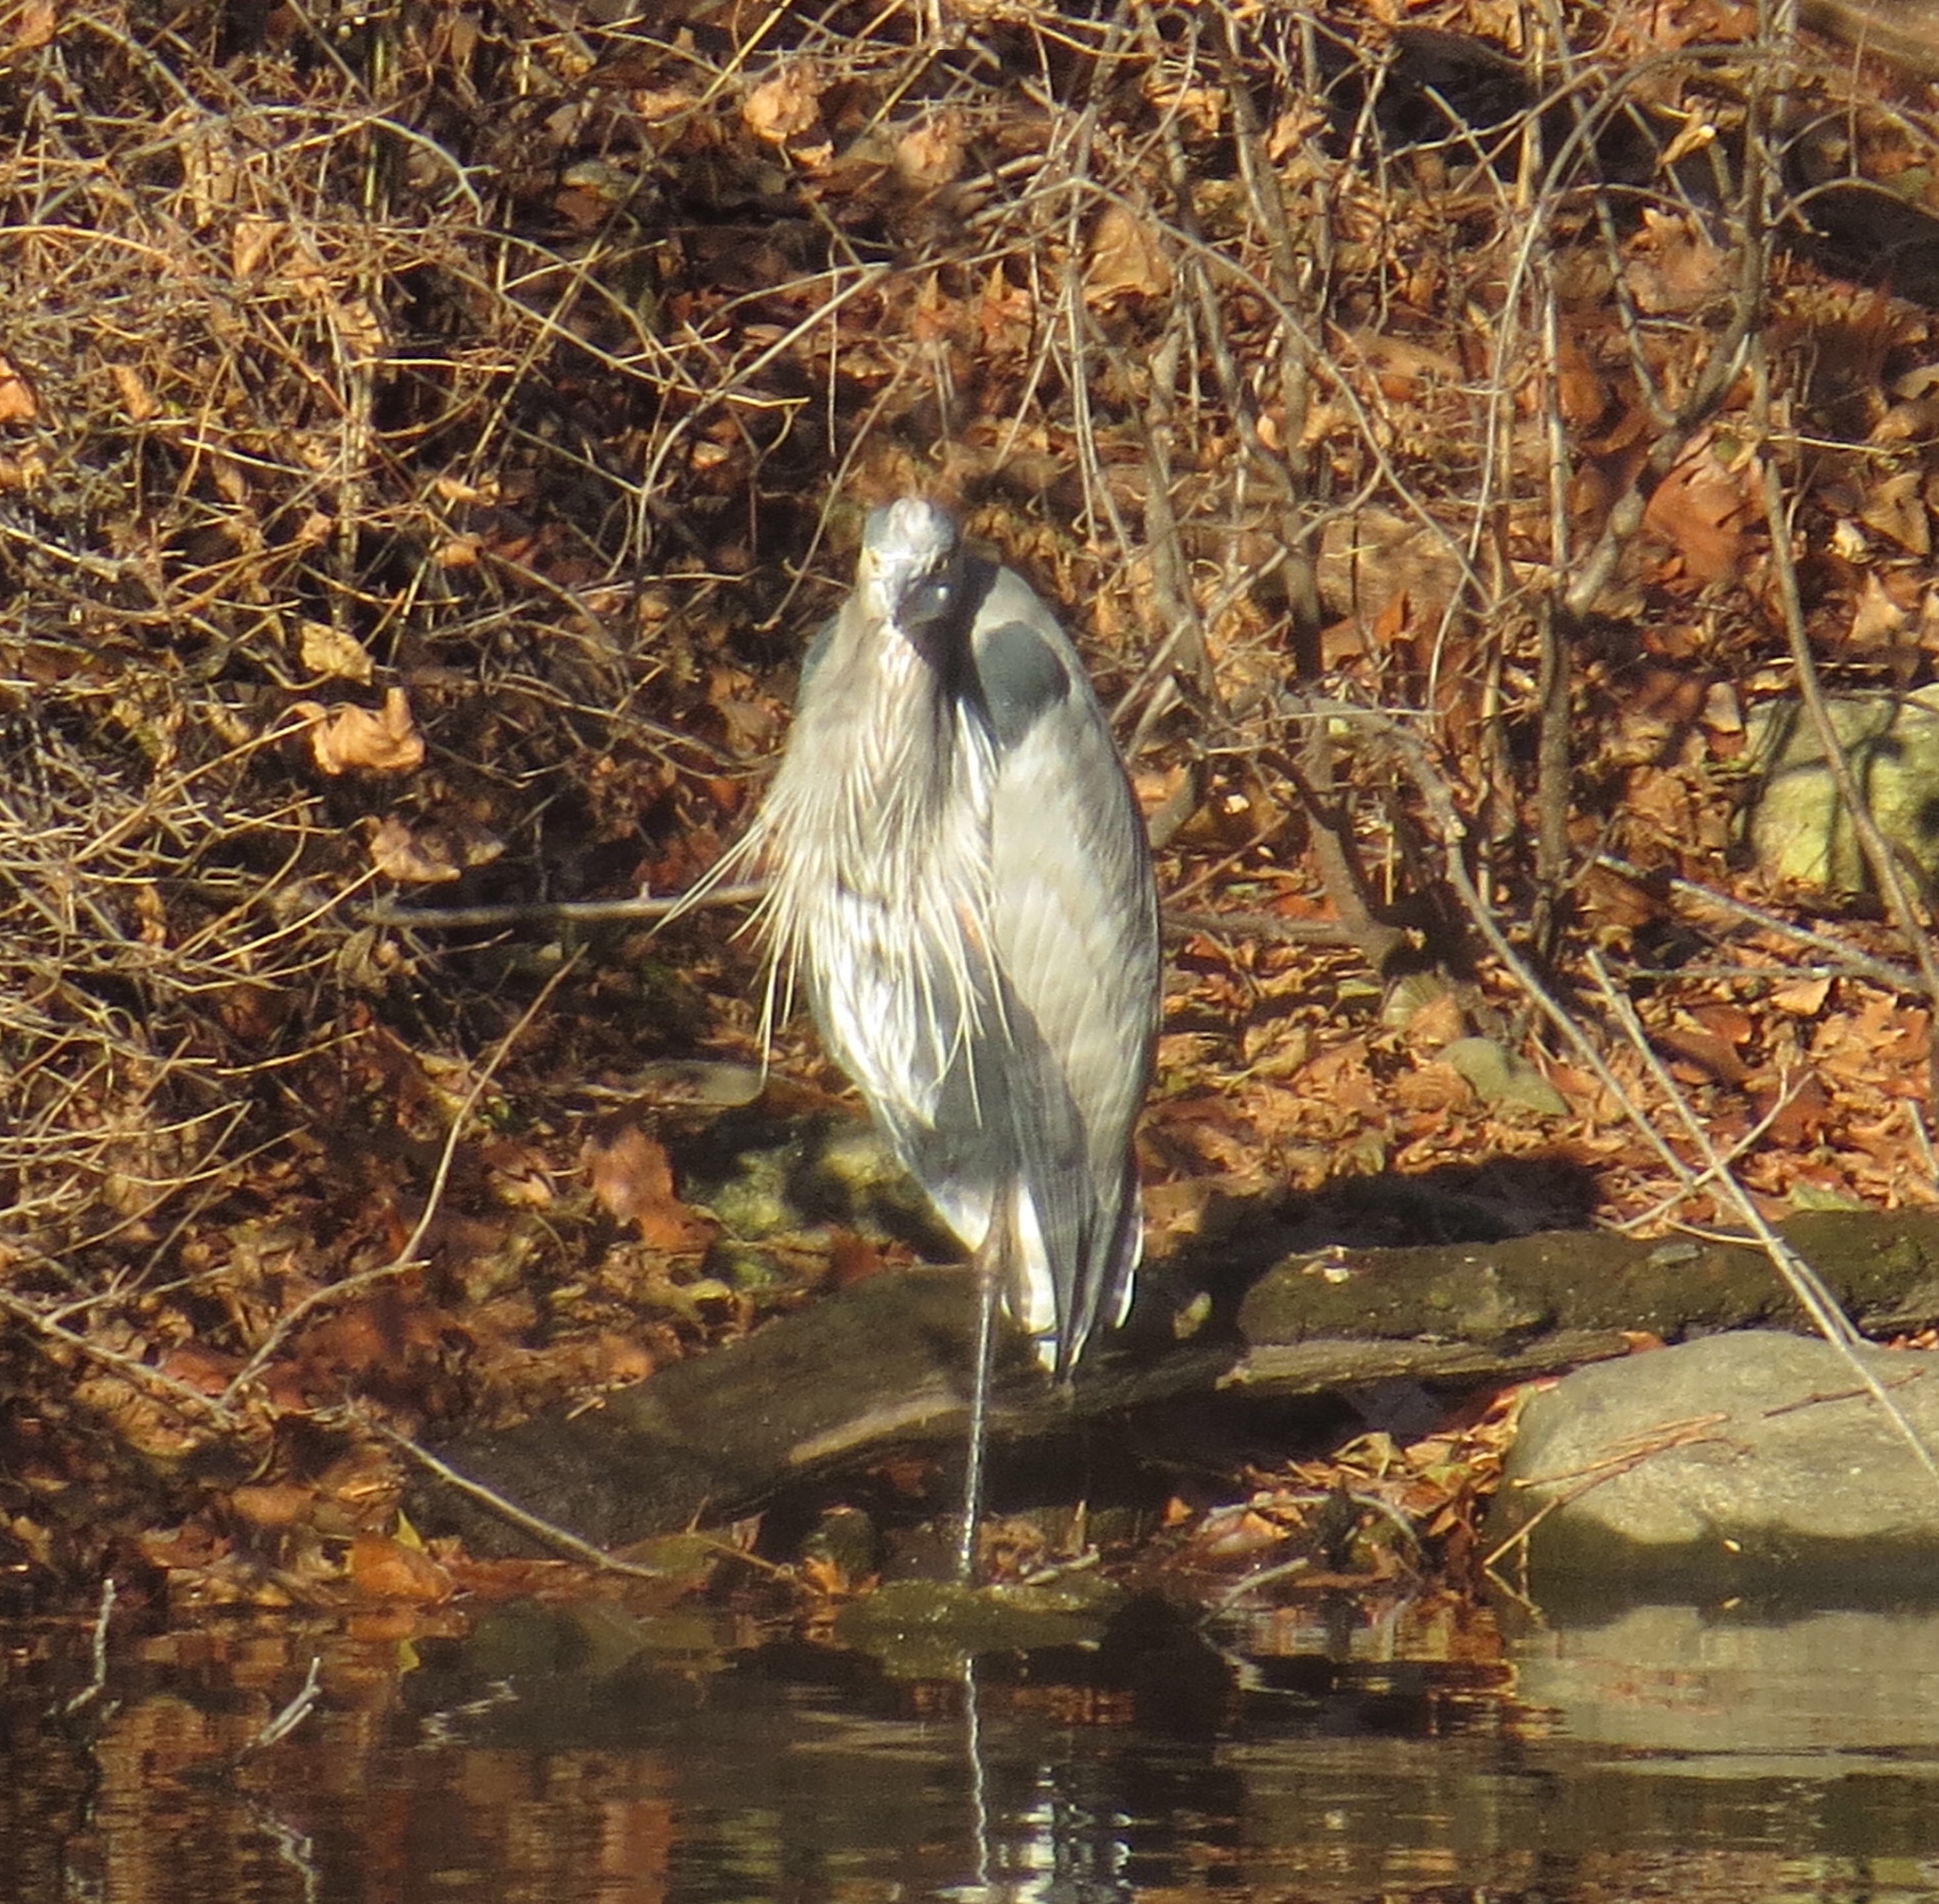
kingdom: Animalia
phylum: Chordata
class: Aves
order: Pelecaniformes
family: Ardeidae
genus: Ardea
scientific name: Ardea herodias
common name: Great blue heron
